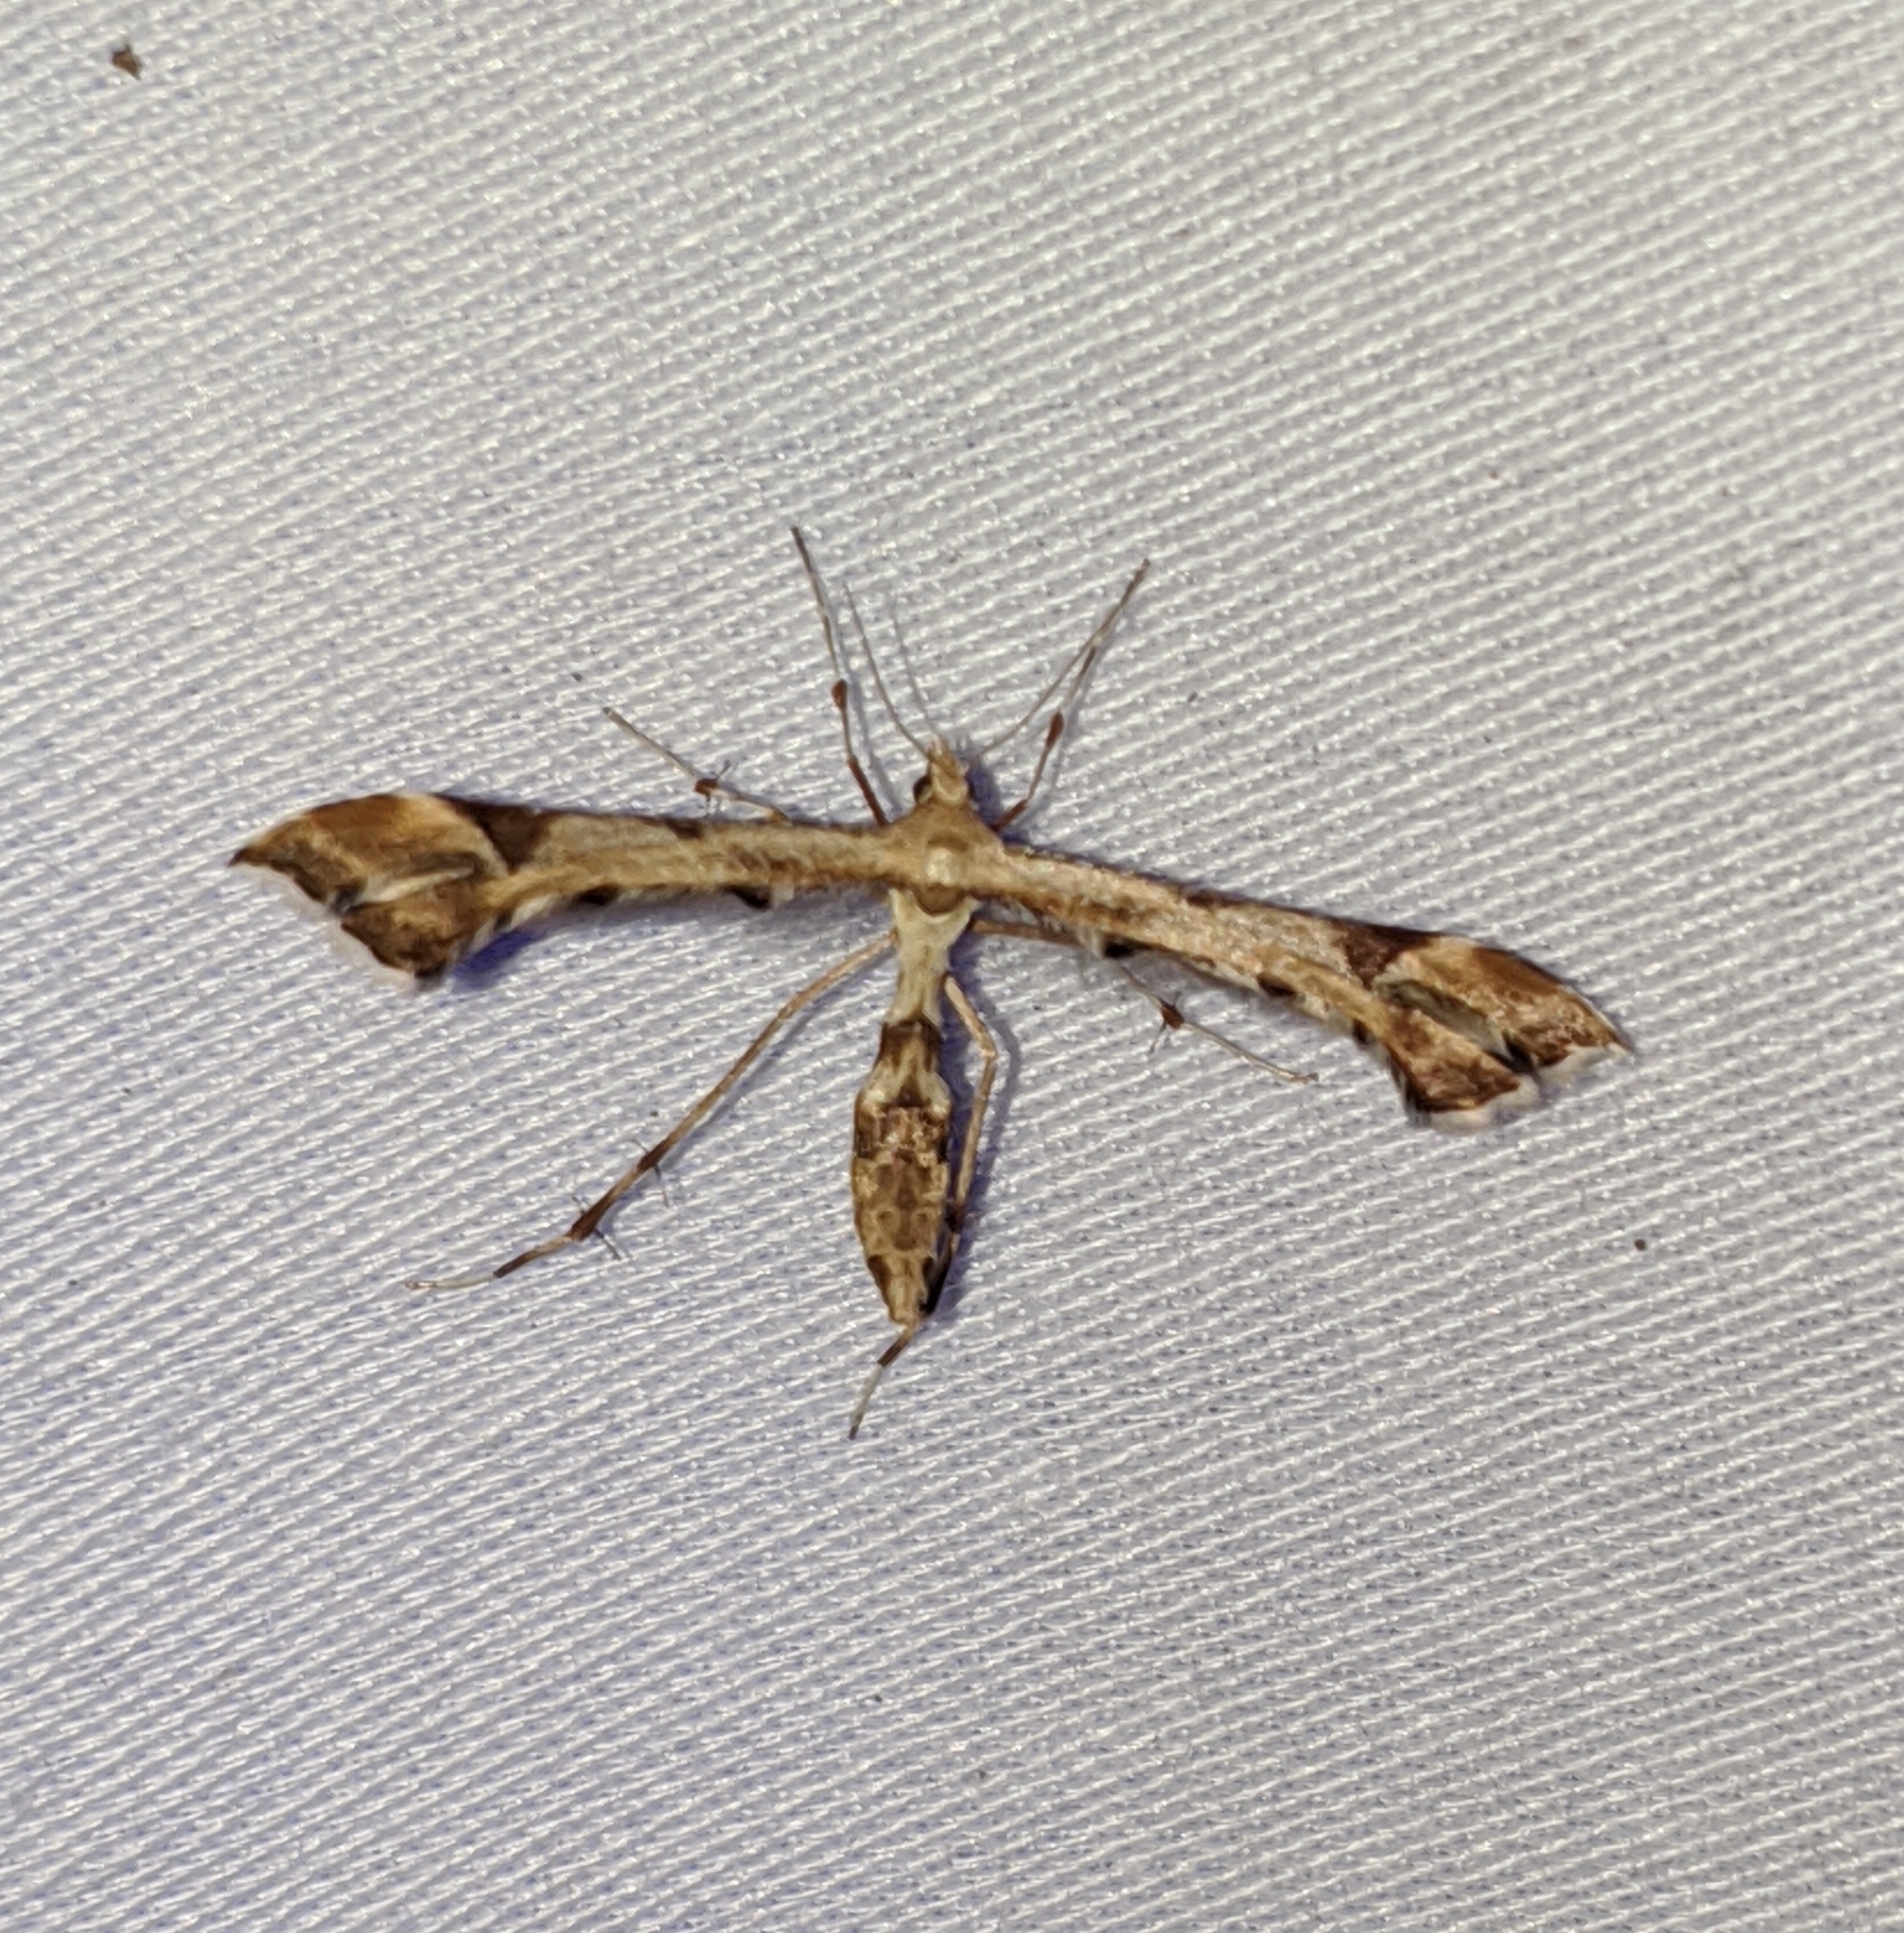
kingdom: Animalia
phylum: Arthropoda
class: Insecta
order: Lepidoptera
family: Pterophoridae
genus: Platyptilia
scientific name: Platyptilia carduidactylus
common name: Artichoke plume moth
